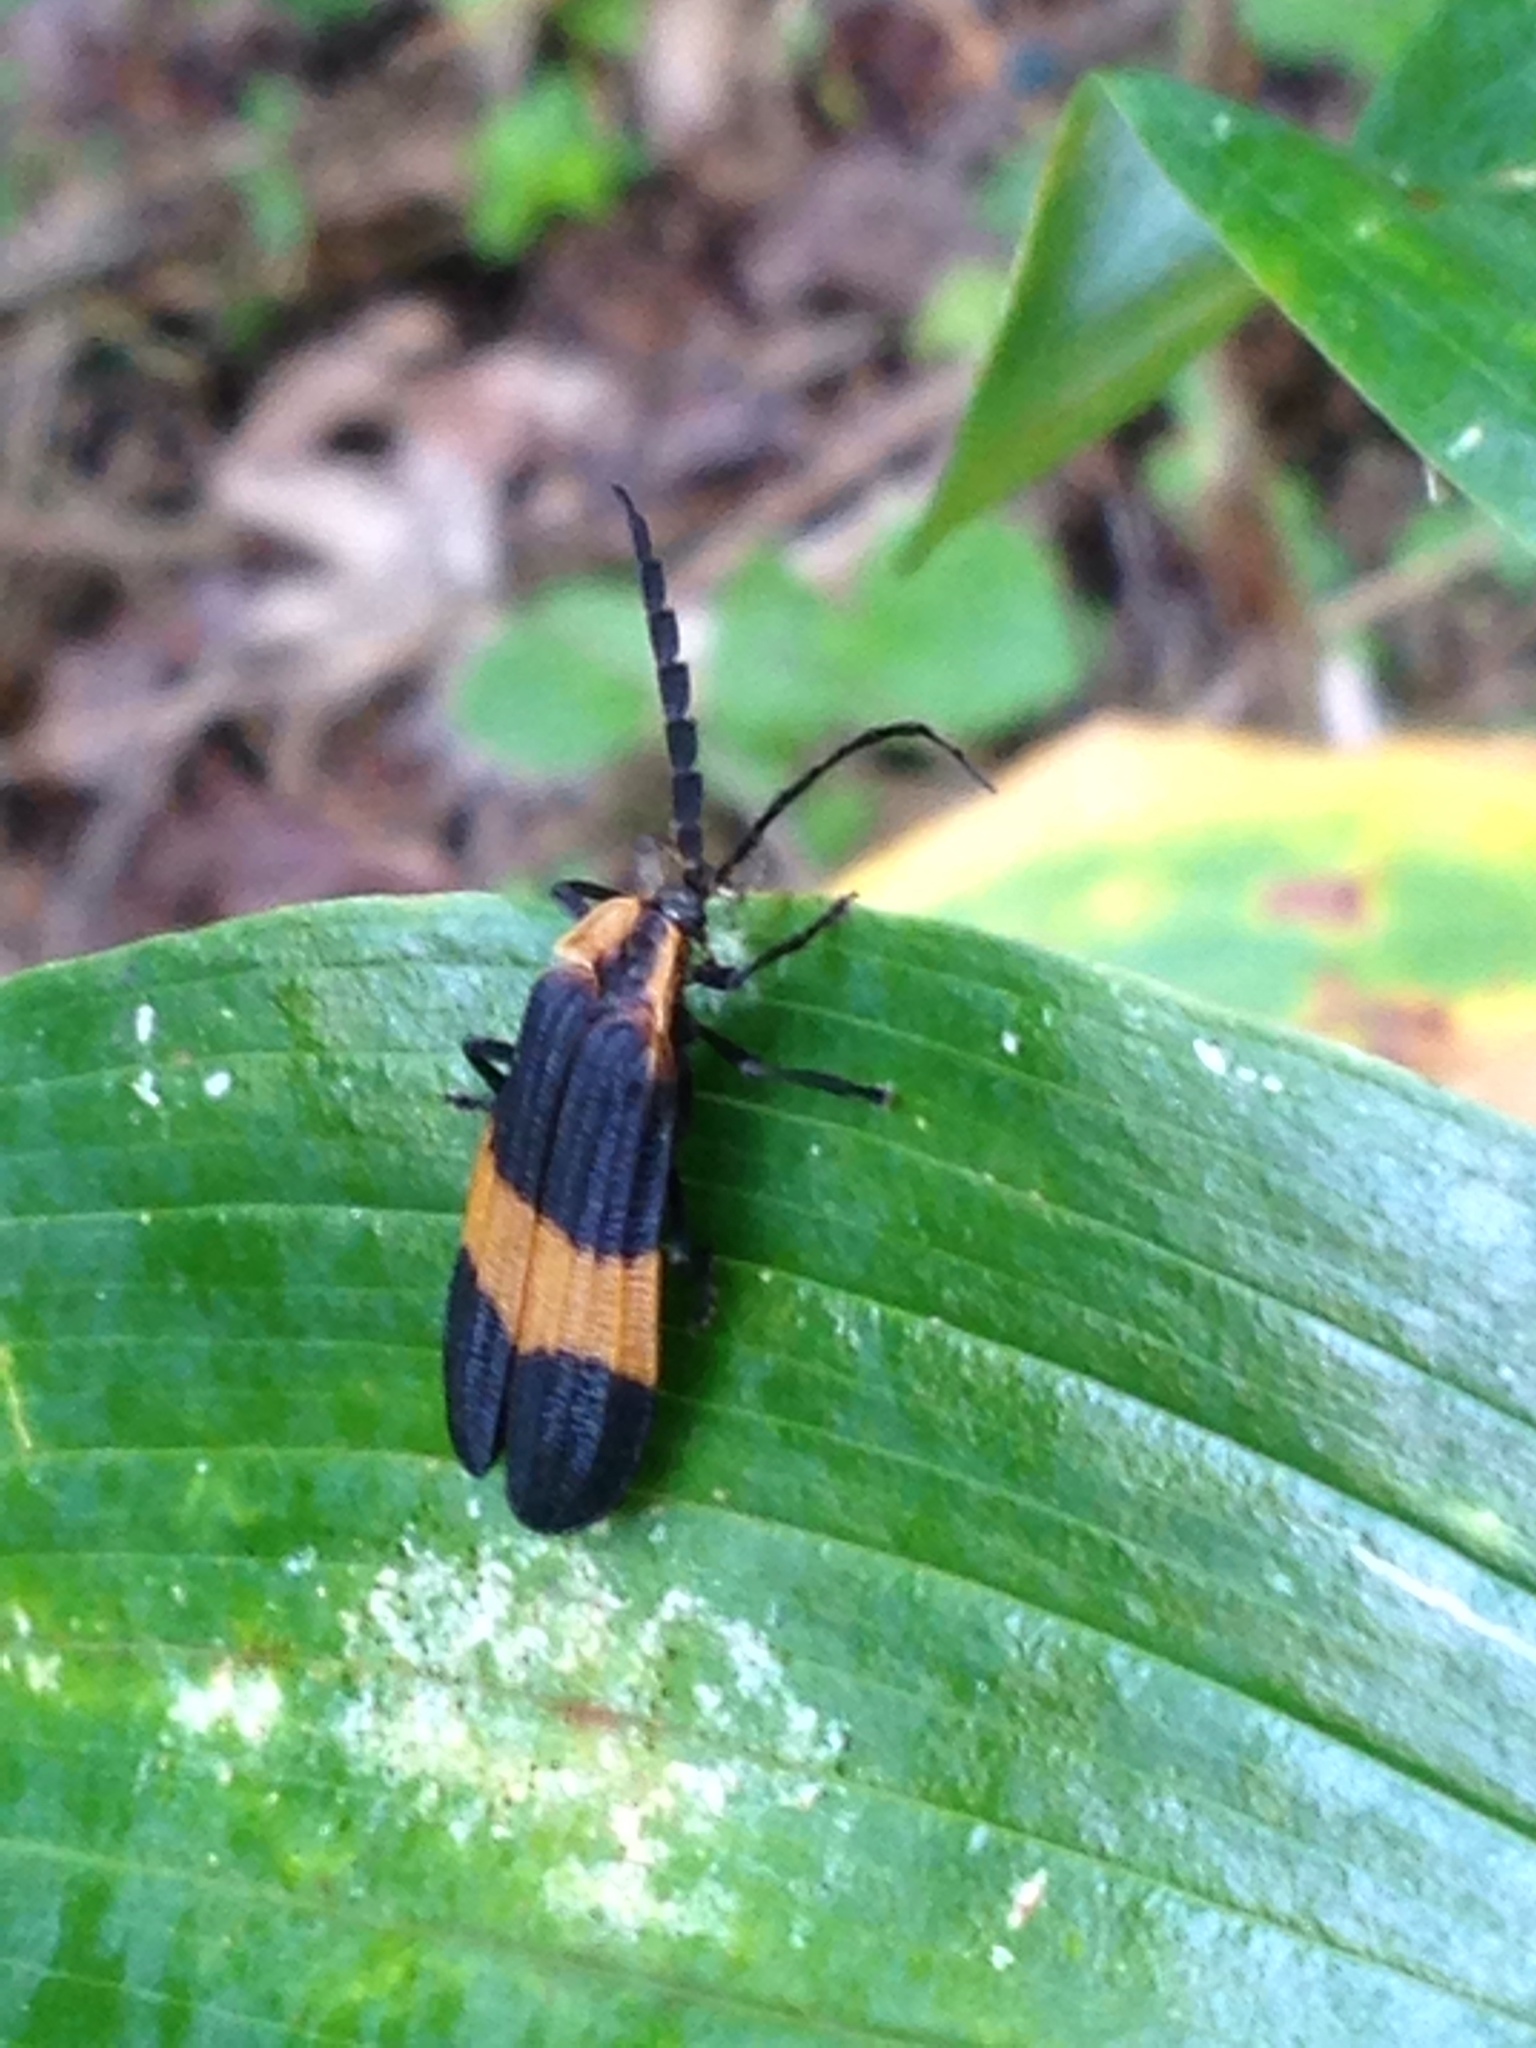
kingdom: Animalia
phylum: Arthropoda
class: Insecta
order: Coleoptera
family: Lycidae
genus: Calopteron
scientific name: Calopteron terminale
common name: End band net-winged beetle
